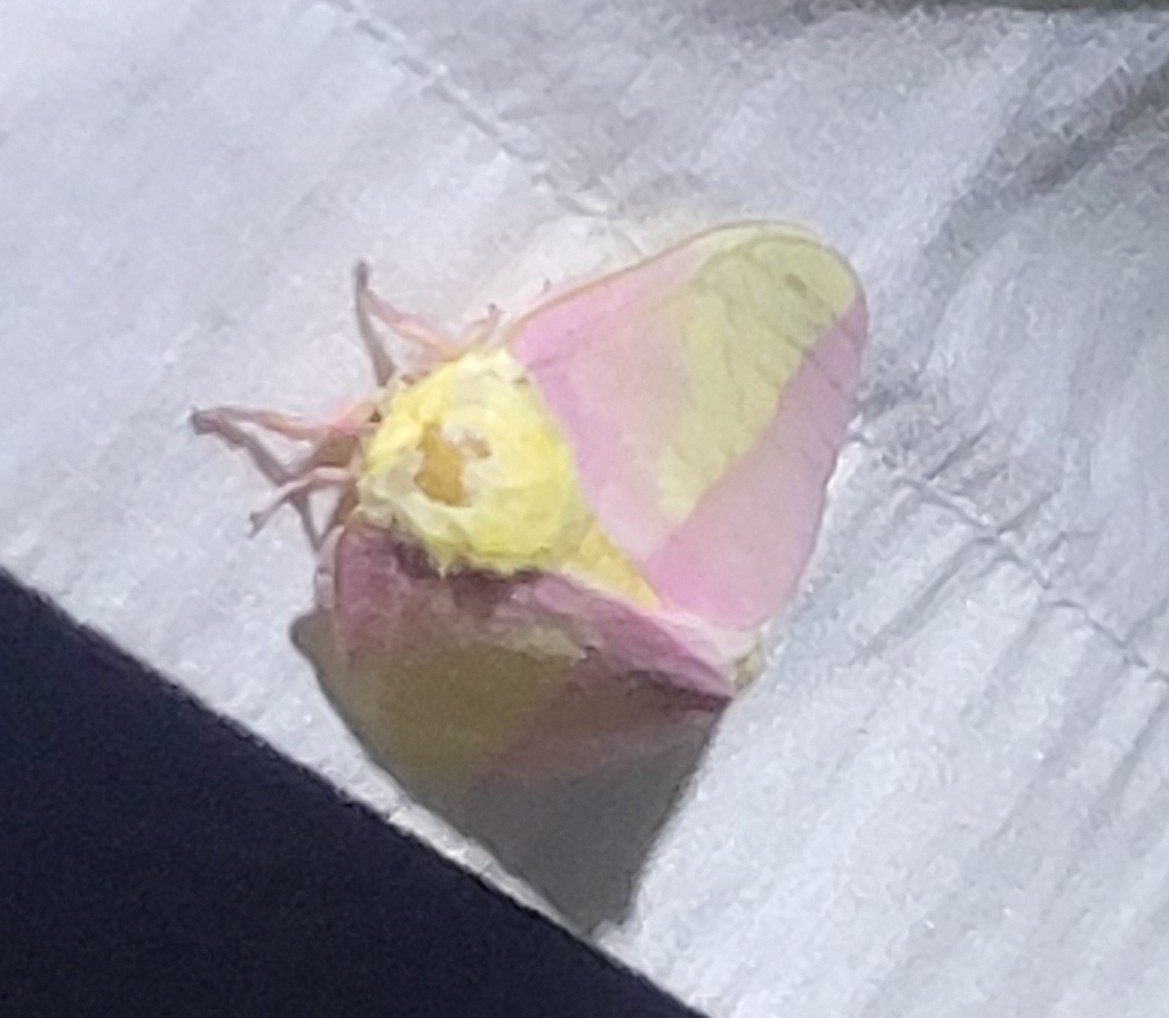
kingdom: Animalia
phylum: Arthropoda
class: Insecta
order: Lepidoptera
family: Saturniidae
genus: Dryocampa
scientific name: Dryocampa rubicunda
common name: Rosy maple moth
